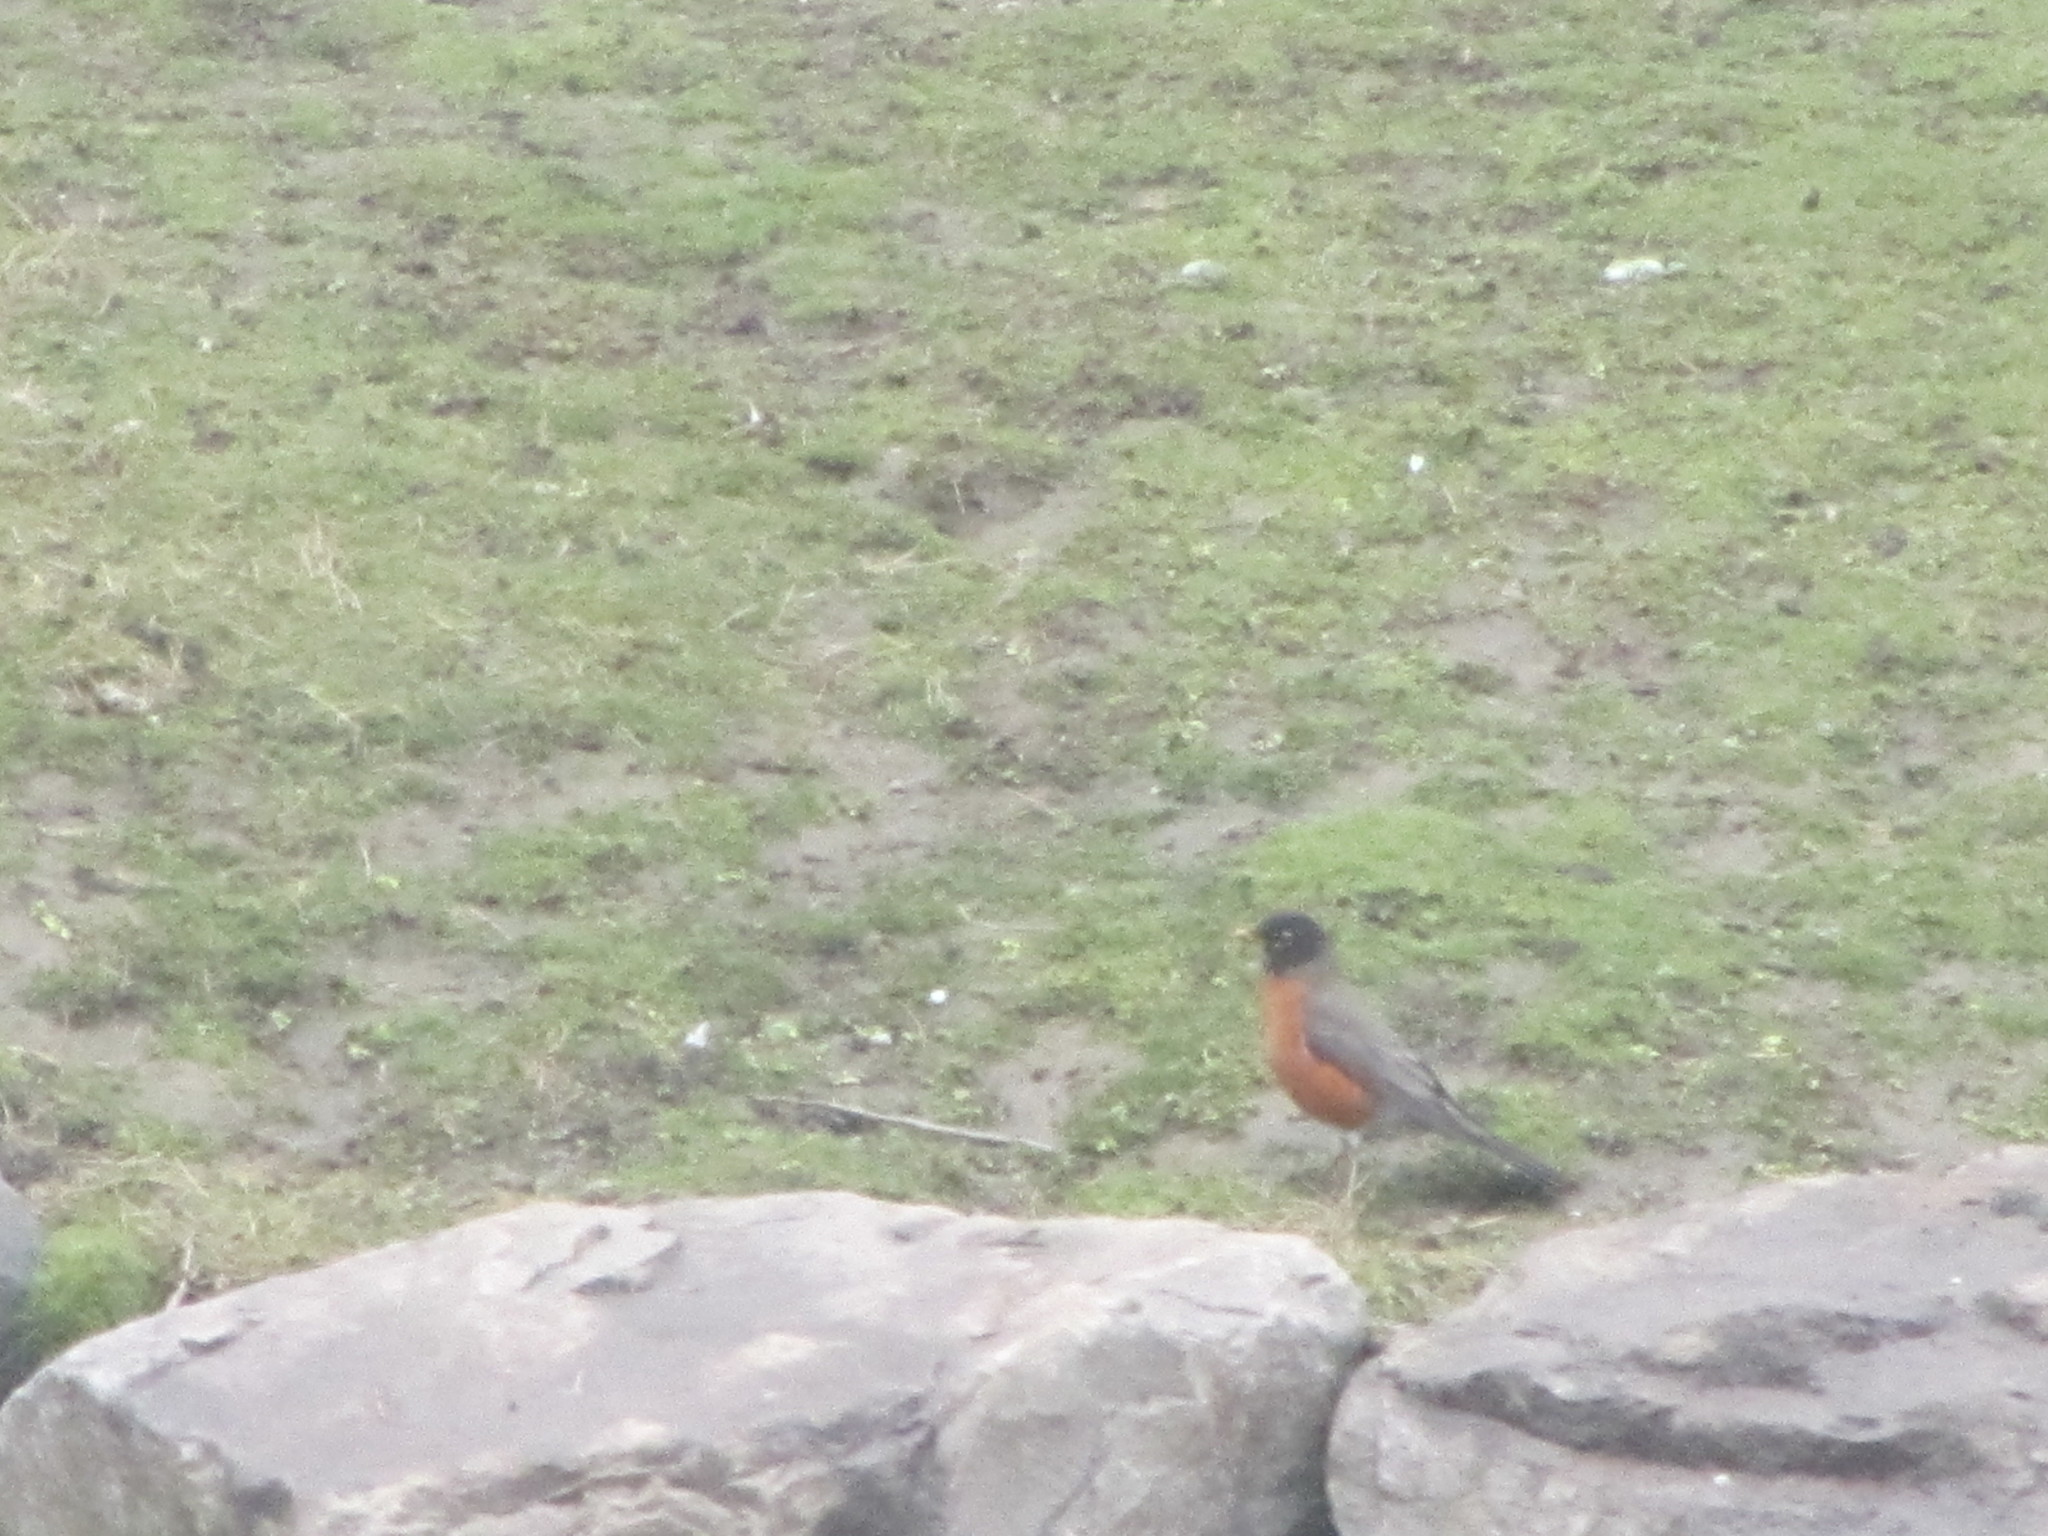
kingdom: Animalia
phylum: Chordata
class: Aves
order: Passeriformes
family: Turdidae
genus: Turdus
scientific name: Turdus migratorius
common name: American robin
